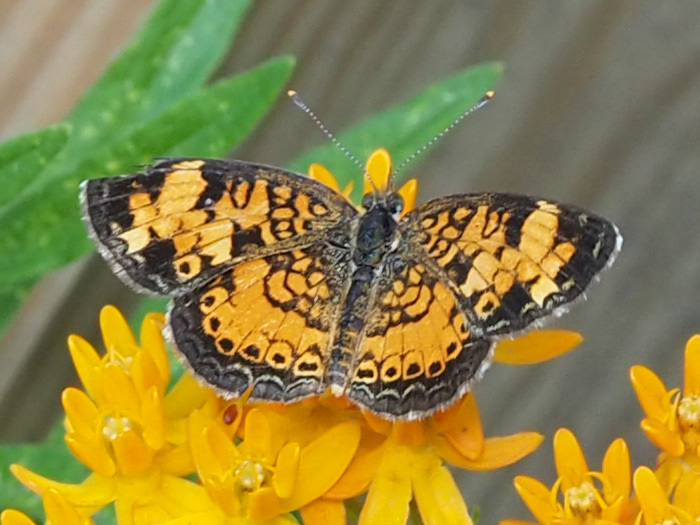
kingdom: Animalia
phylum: Arthropoda
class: Insecta
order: Lepidoptera
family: Nymphalidae
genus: Phyciodes
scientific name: Phyciodes tharos
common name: Pearl crescent
